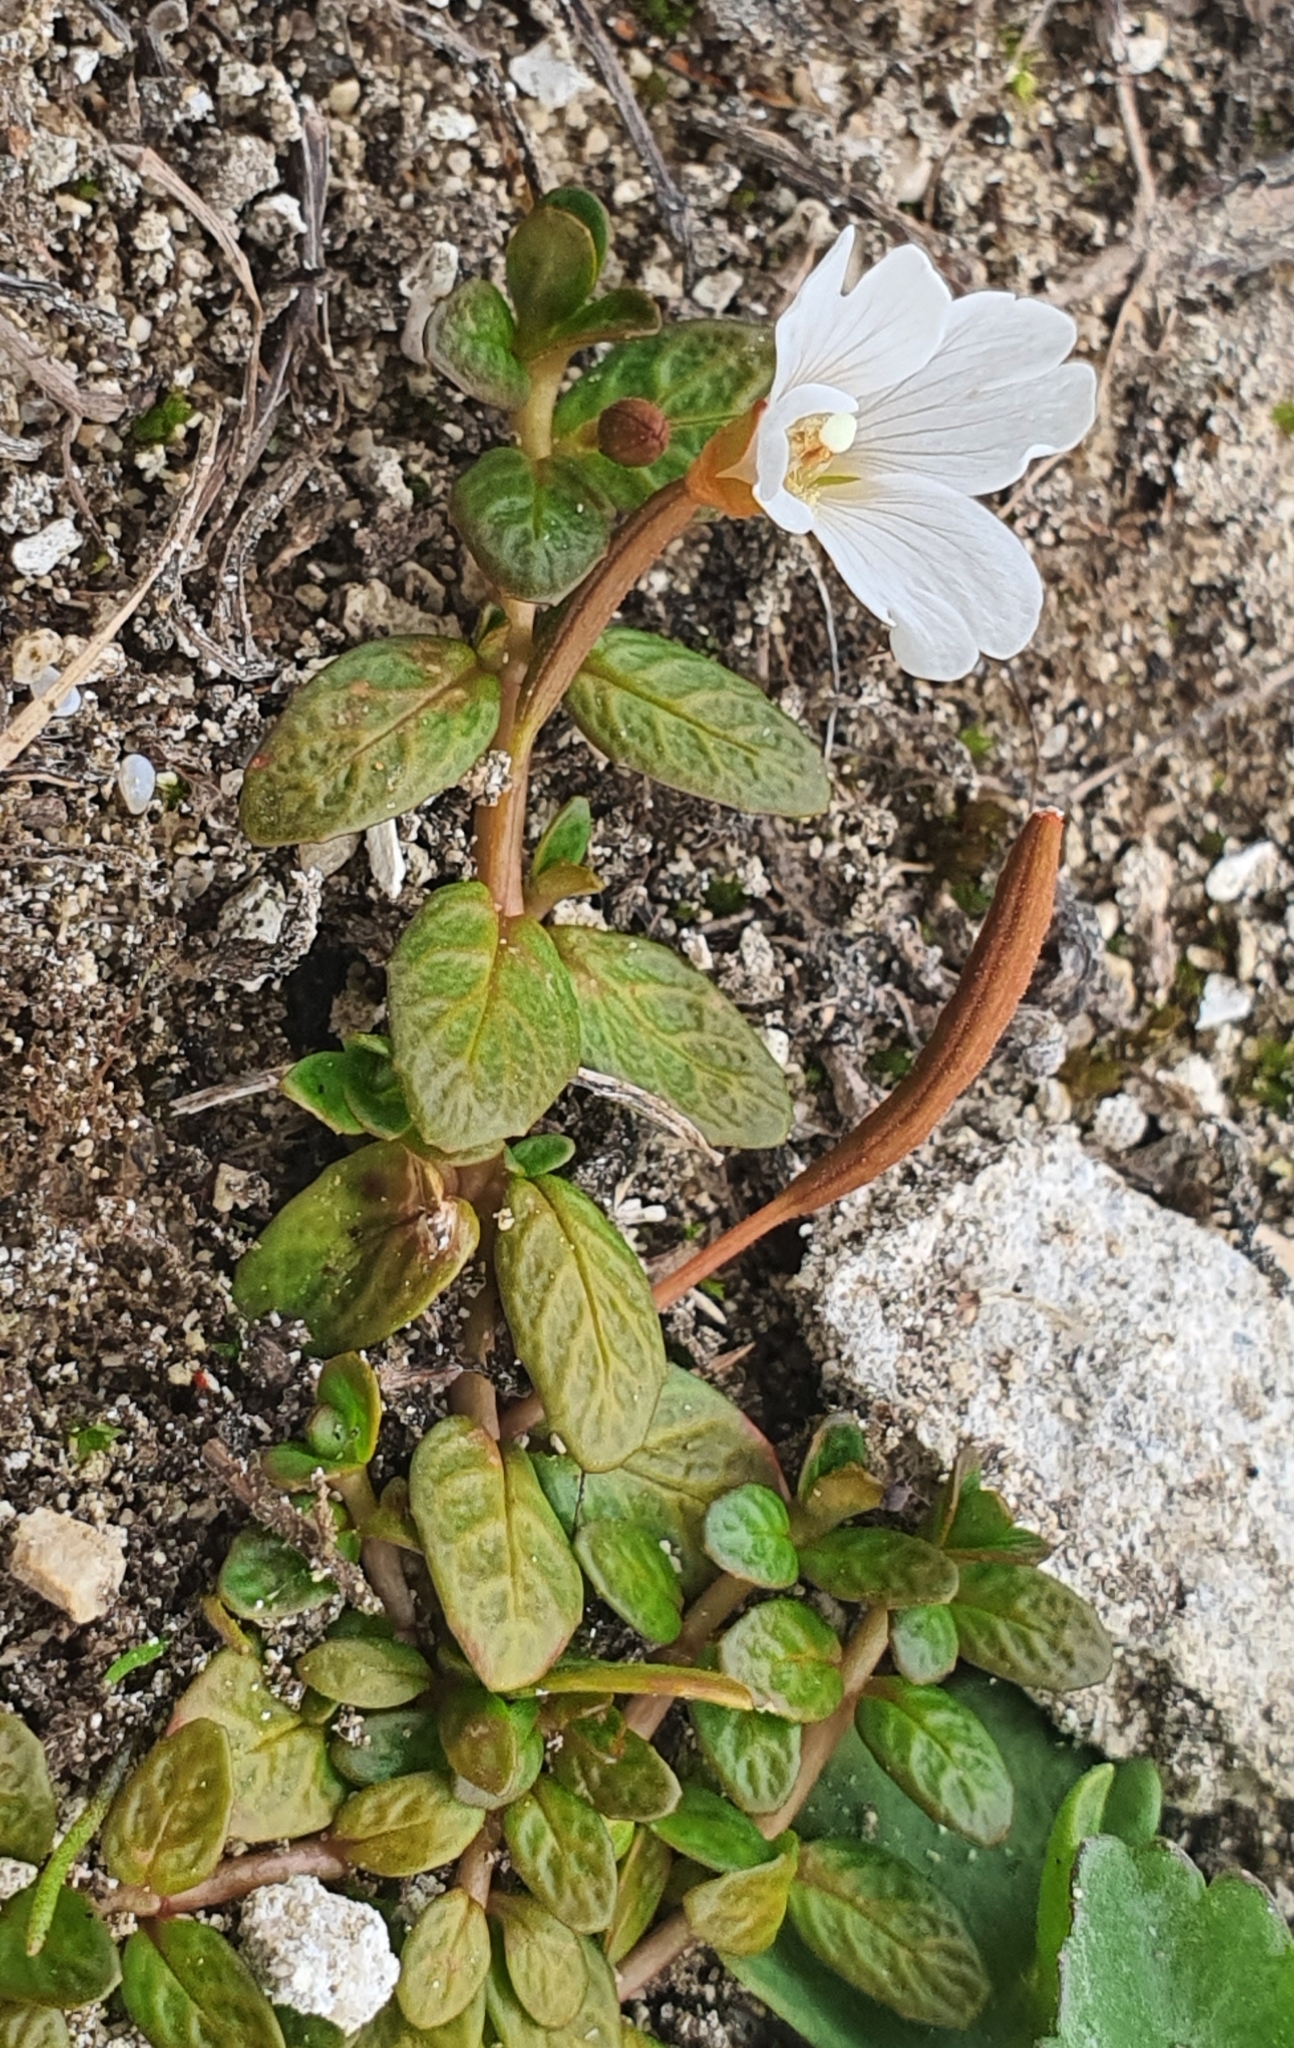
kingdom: Plantae
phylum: Tracheophyta
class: Magnoliopsida
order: Myrtales
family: Onagraceae
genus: Epilobium
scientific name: Epilobium angustum
